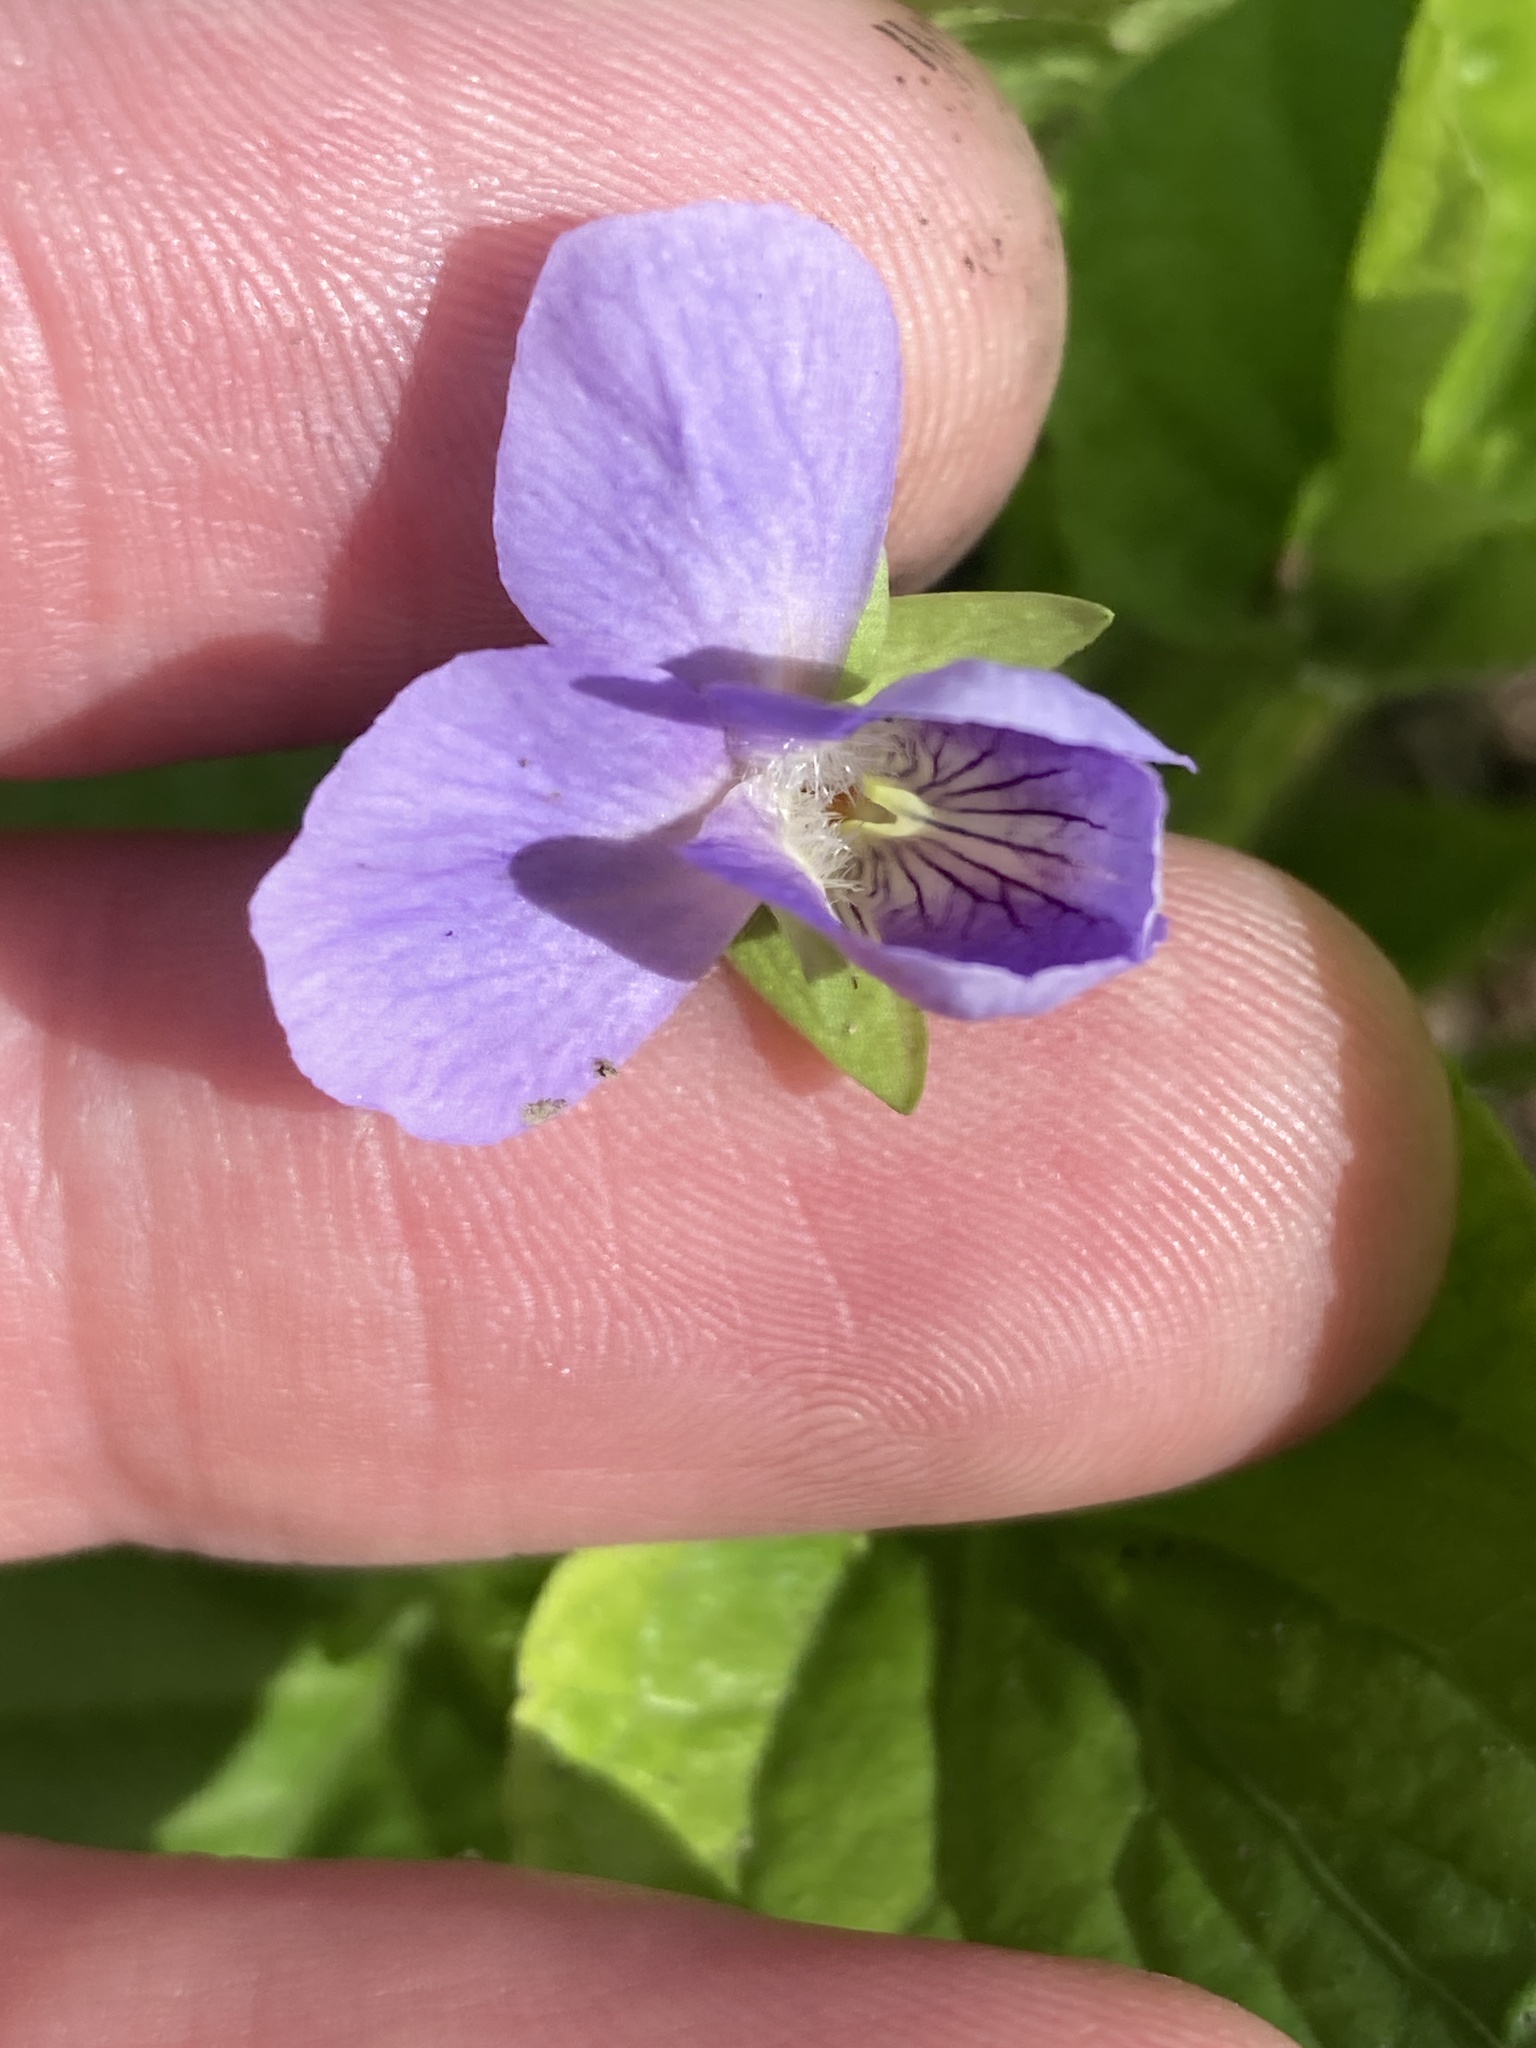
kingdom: Plantae
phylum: Tracheophyta
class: Magnoliopsida
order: Malpighiales
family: Violaceae
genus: Viola
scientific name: Viola mirabilis
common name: Wonder violet
